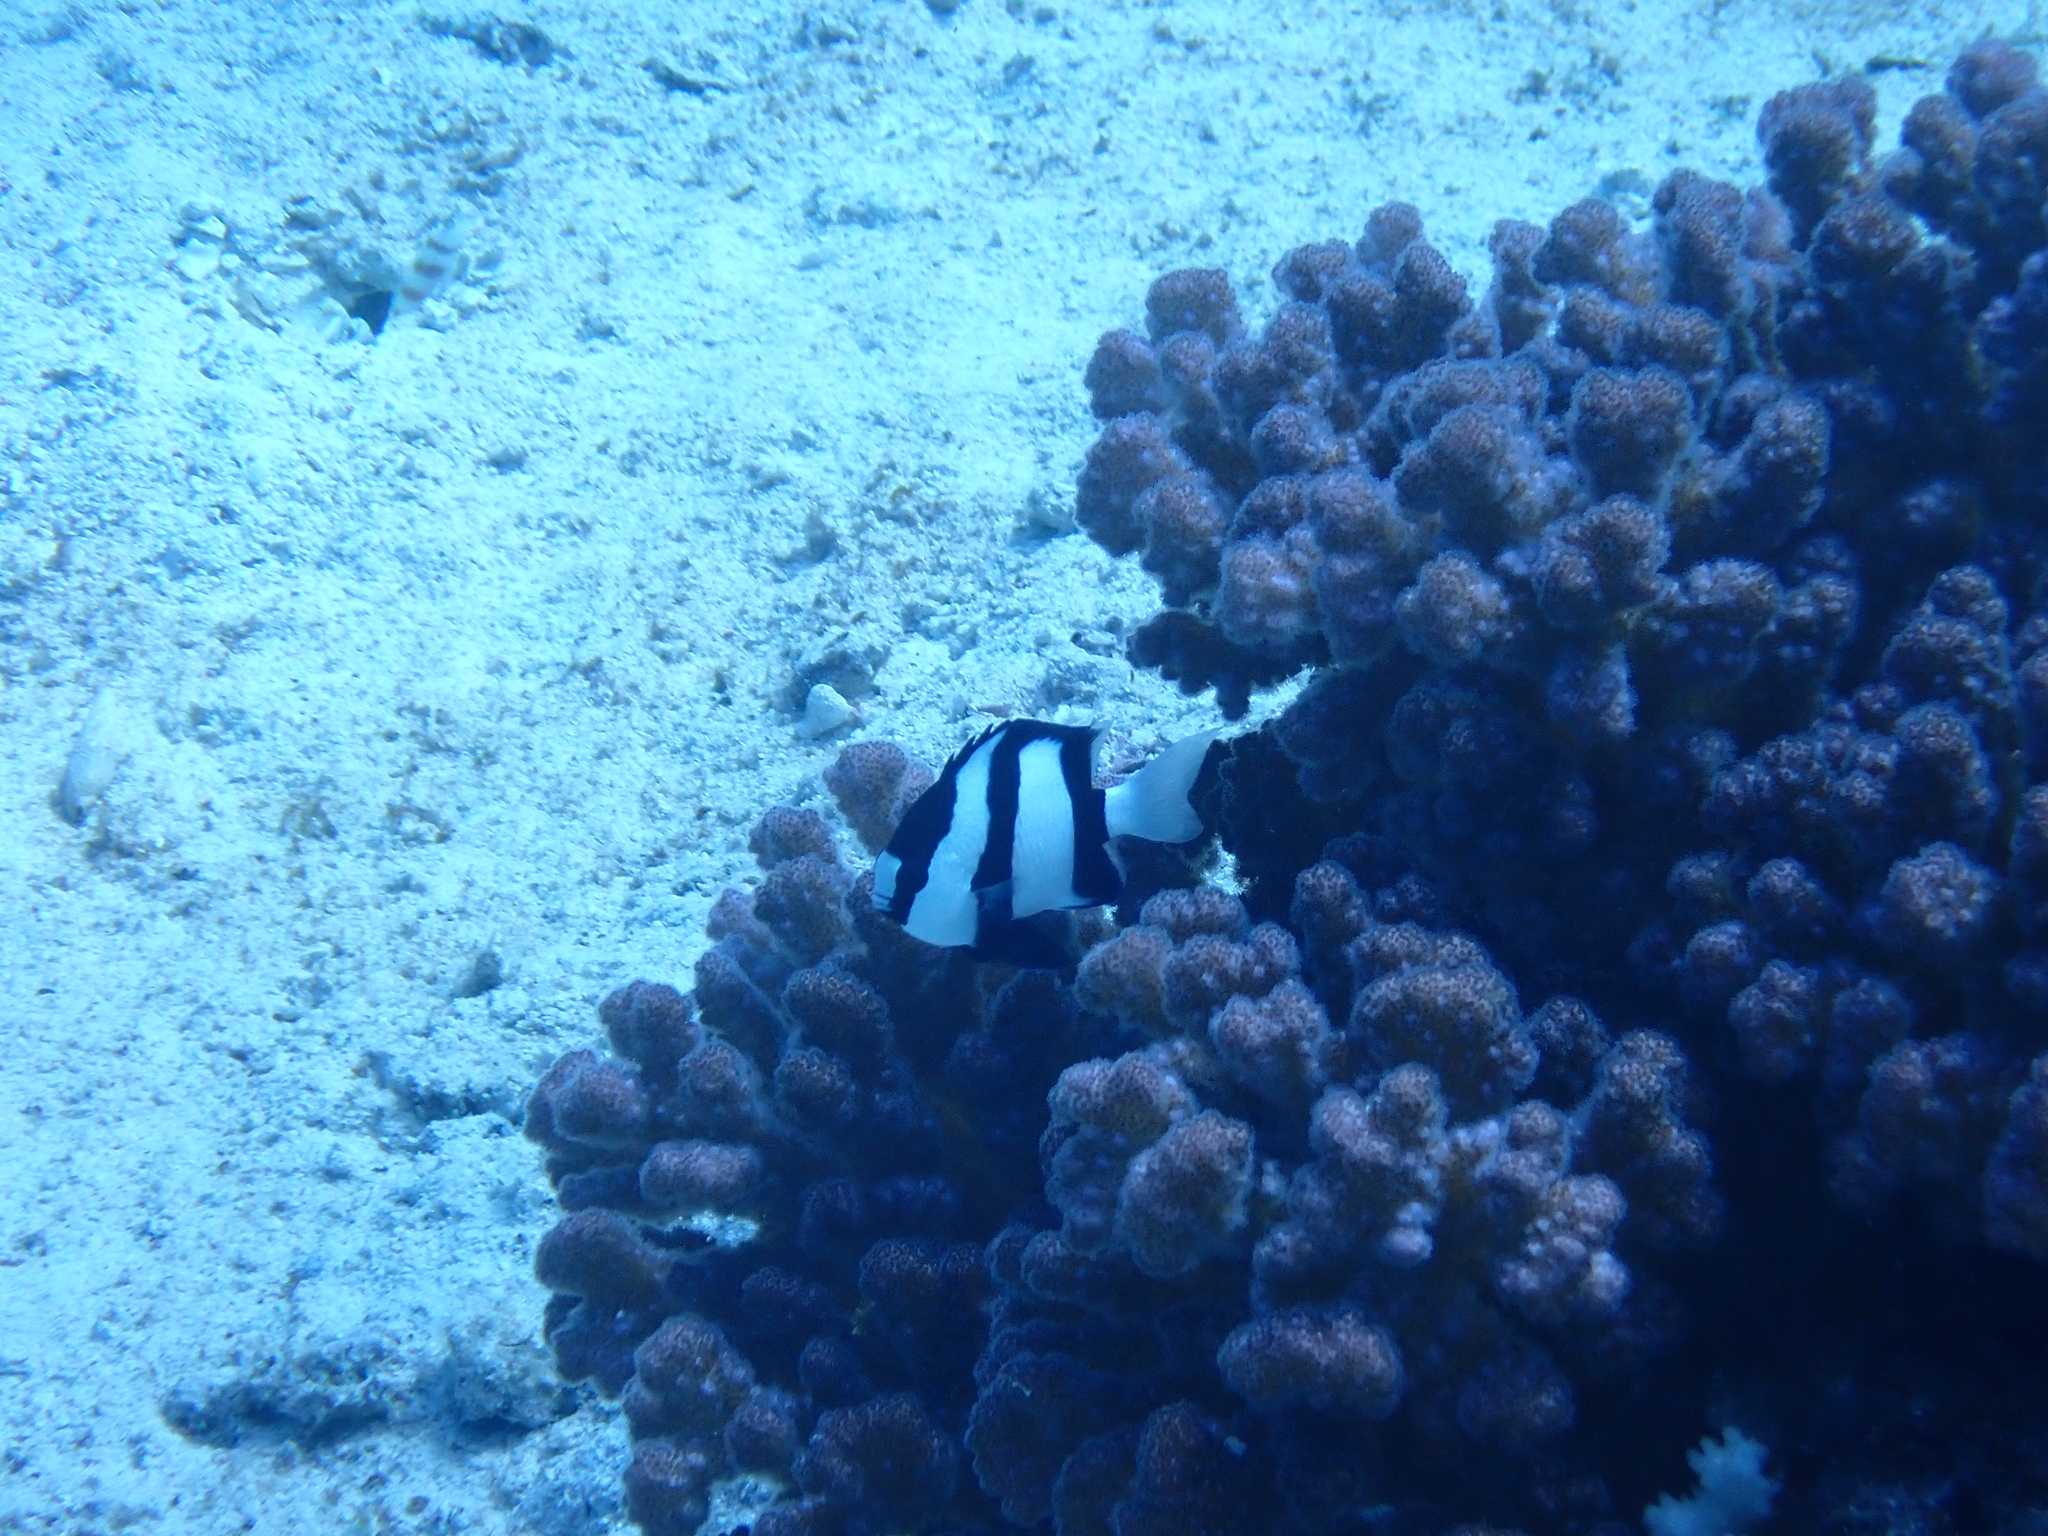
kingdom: Animalia
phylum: Chordata
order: Perciformes
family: Pomacentridae
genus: Dascyllus
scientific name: Dascyllus abudafur
